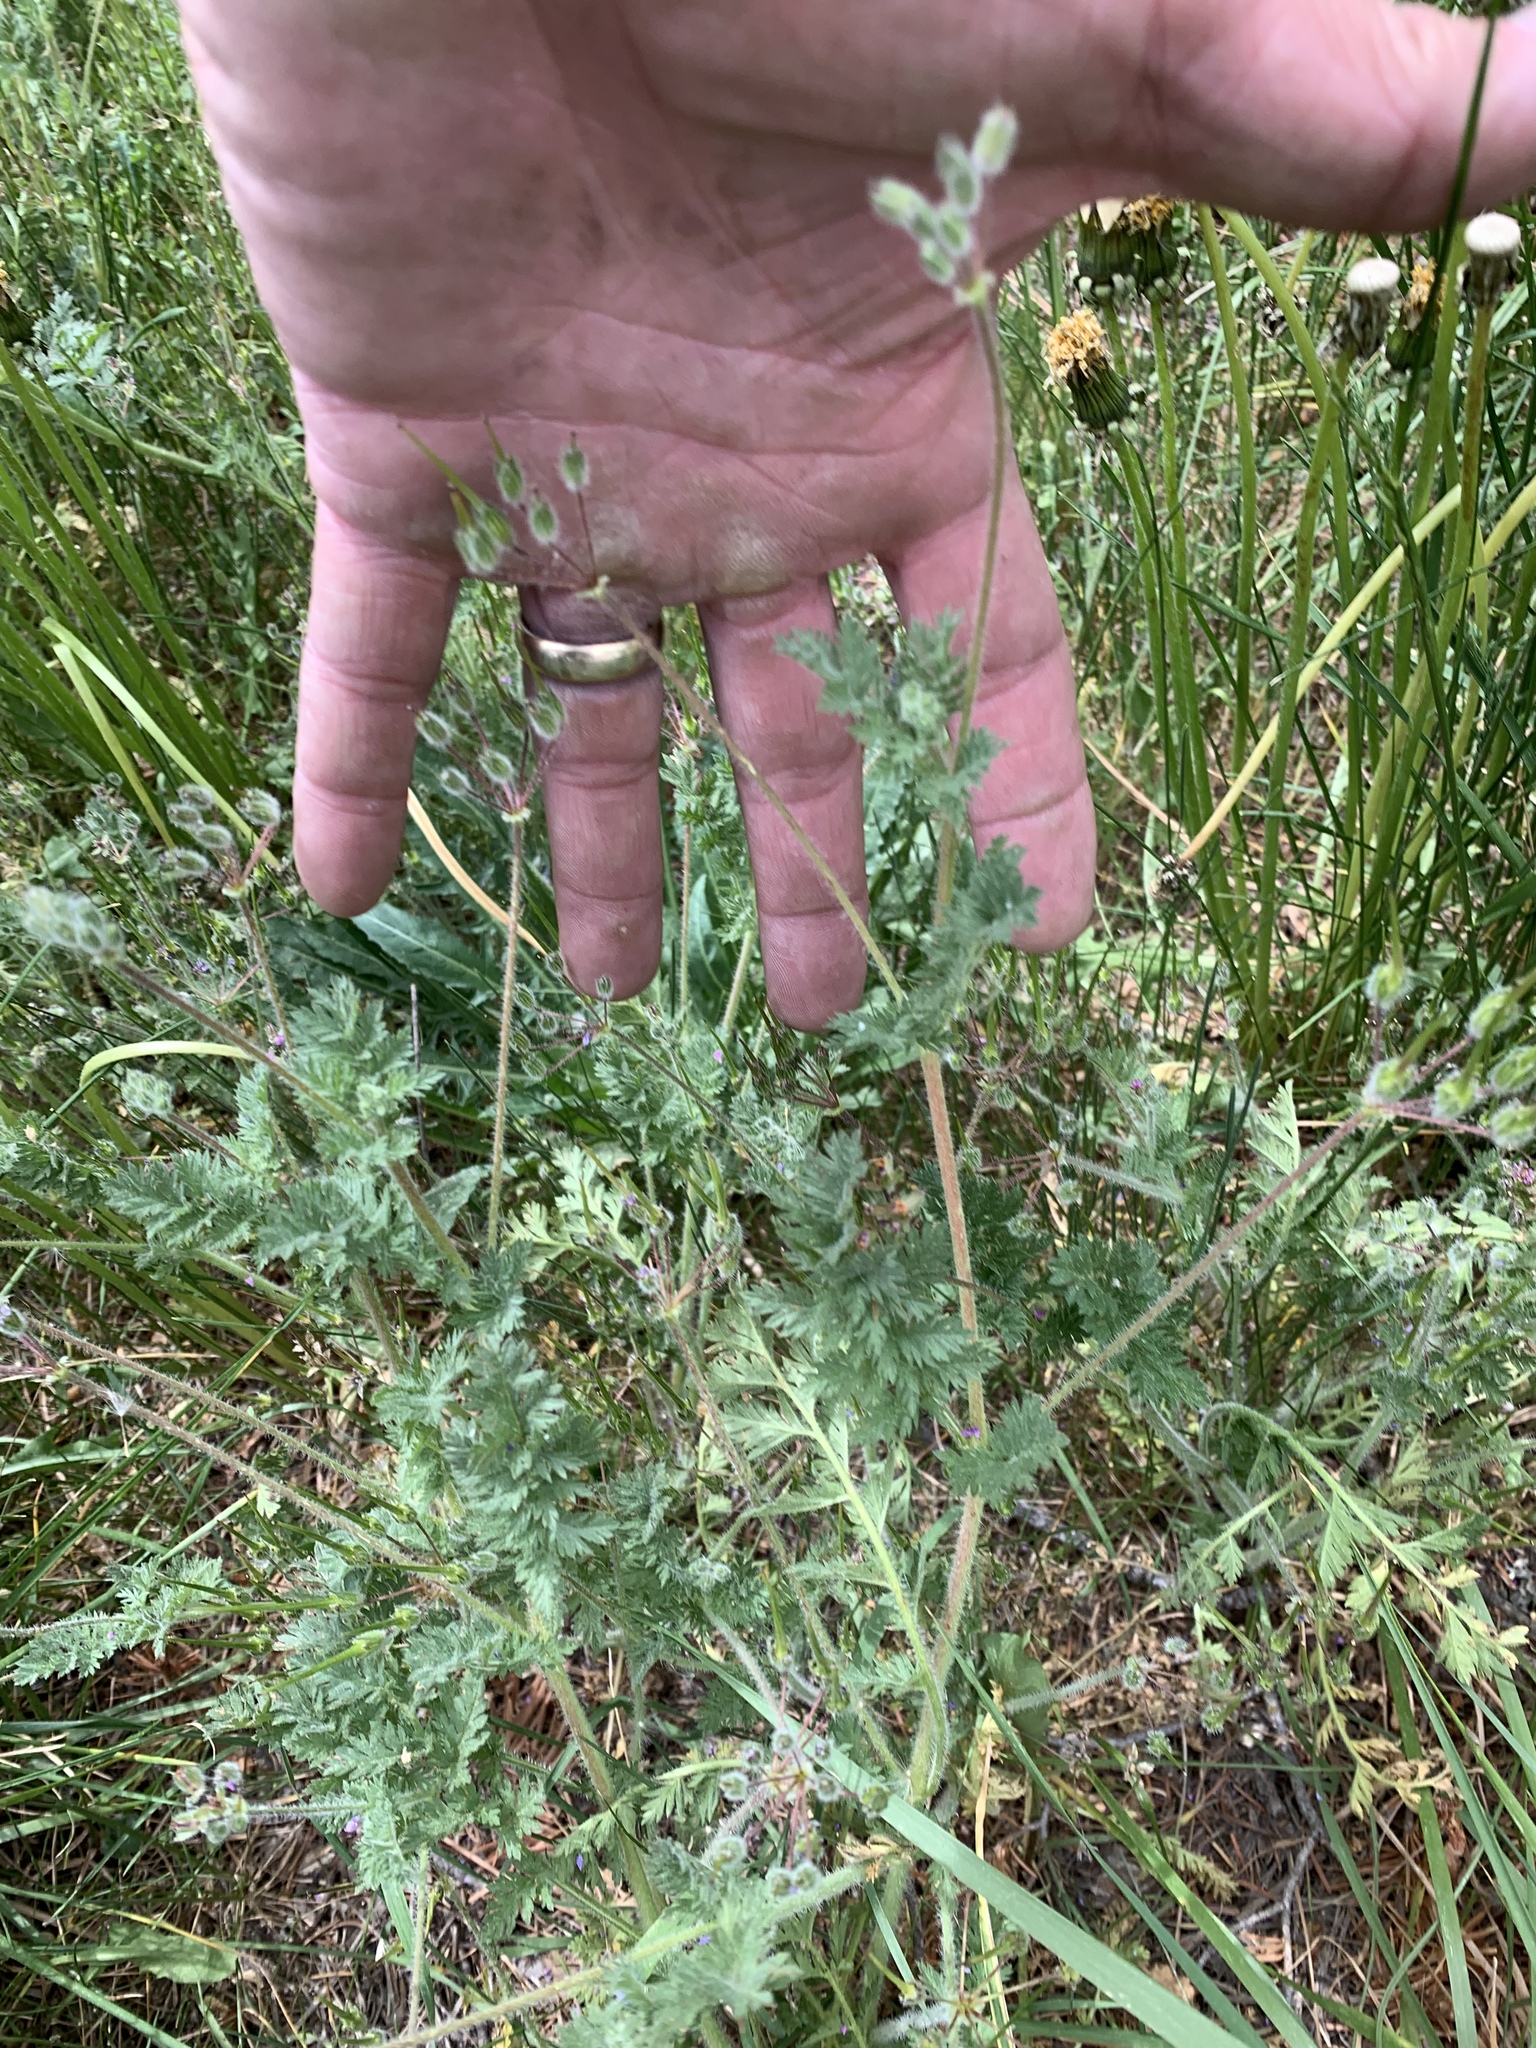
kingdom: Plantae
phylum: Tracheophyta
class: Magnoliopsida
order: Geraniales
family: Geraniaceae
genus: Erodium
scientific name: Erodium cicutarium
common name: Common stork's-bill
